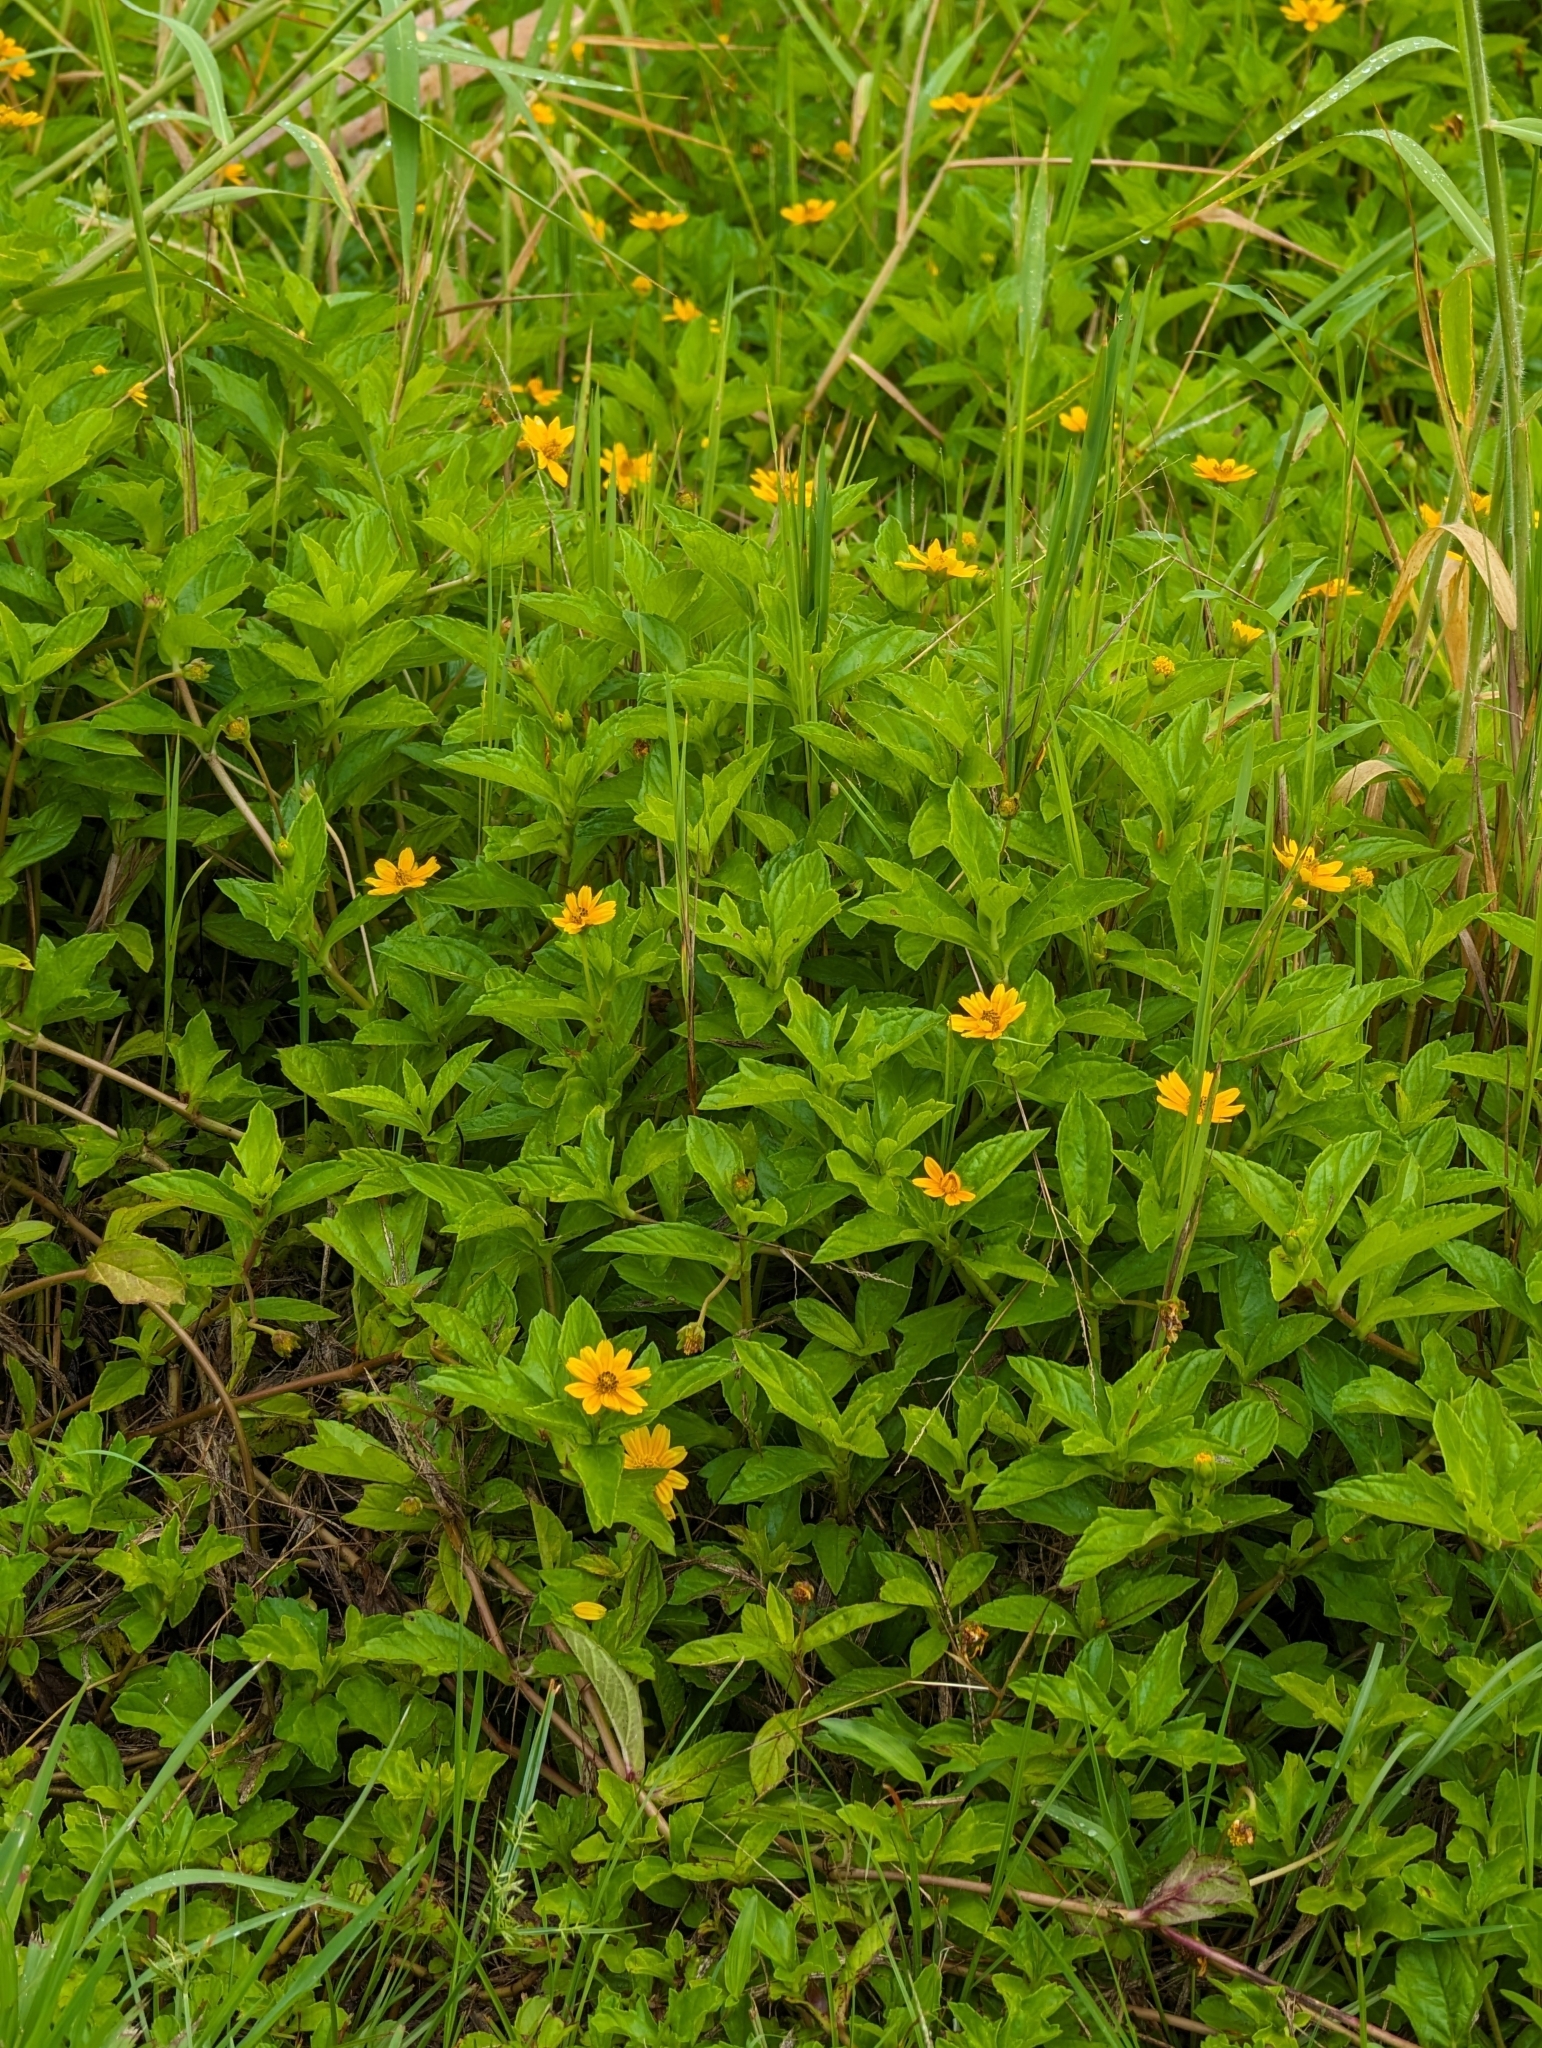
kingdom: Plantae
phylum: Tracheophyta
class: Magnoliopsida
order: Asterales
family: Asteraceae
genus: Sphagneticola
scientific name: Sphagneticola trilobata
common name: Bay biscayne creeping-oxeye
